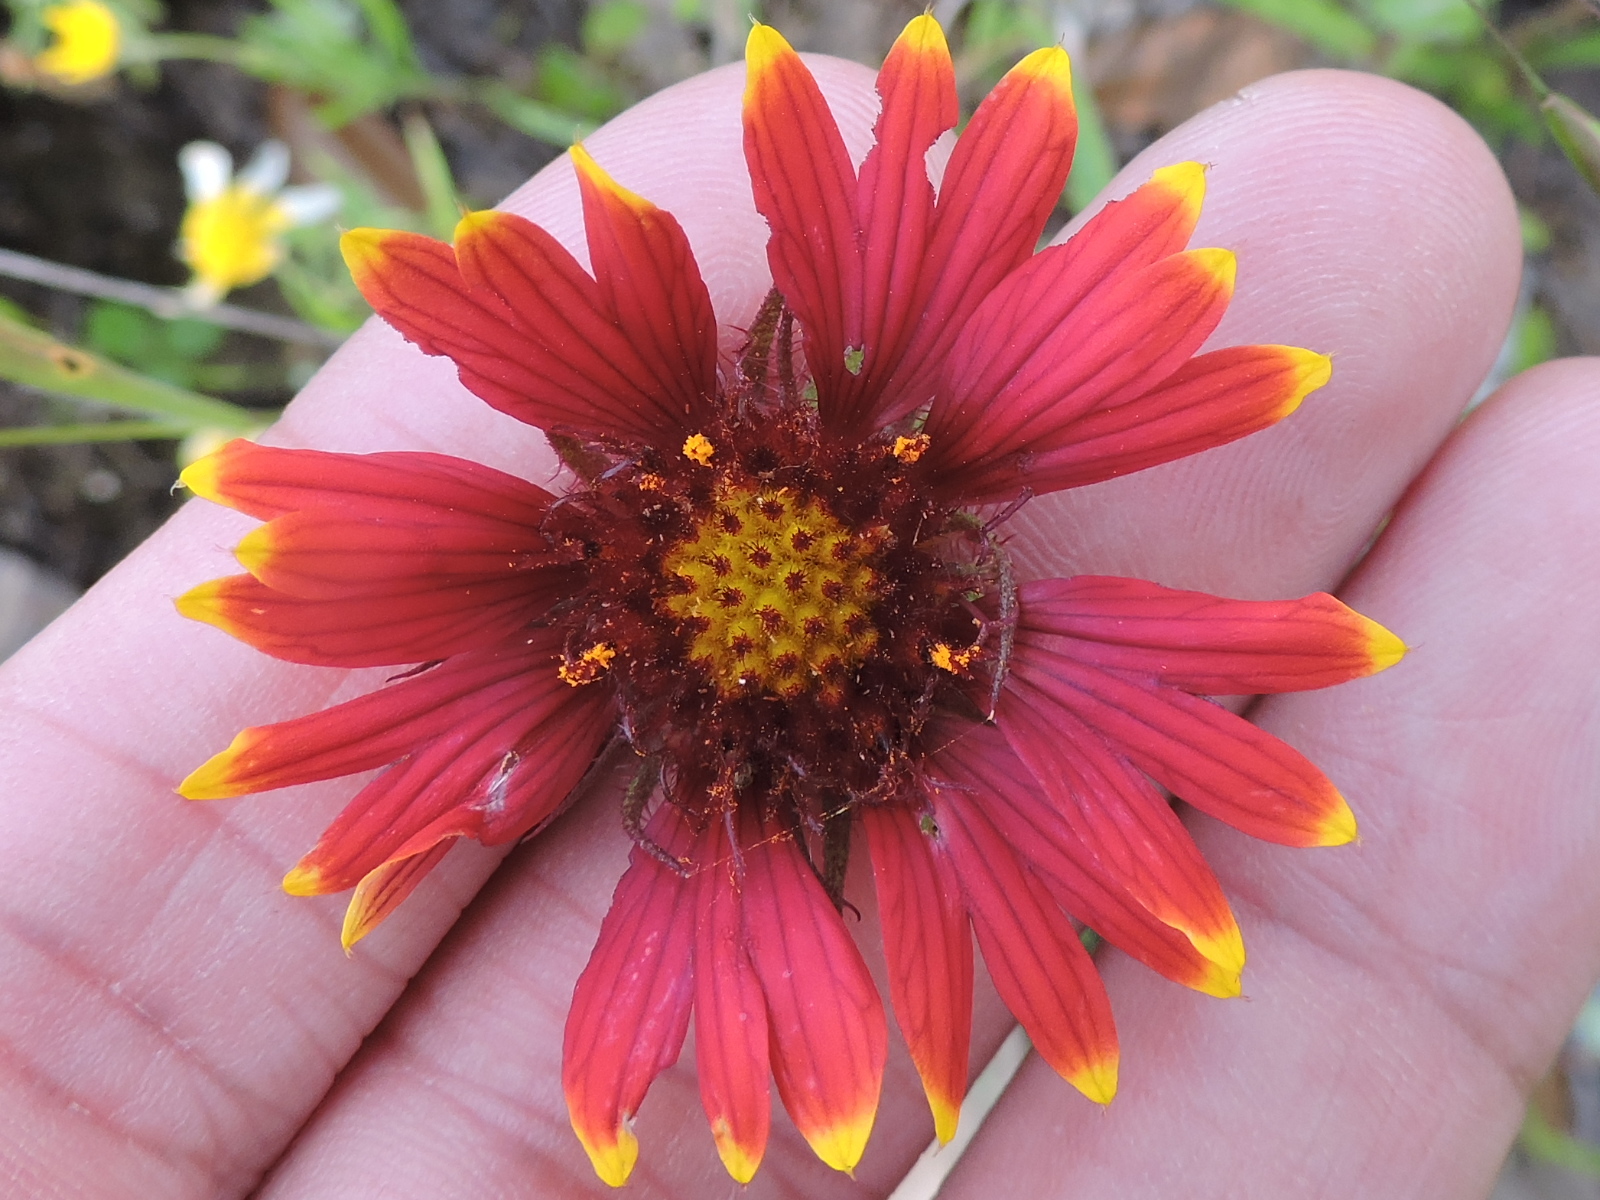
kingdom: Plantae
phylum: Tracheophyta
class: Magnoliopsida
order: Asterales
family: Asteraceae
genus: Gaillardia
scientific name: Gaillardia pulchella
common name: Firewheel
